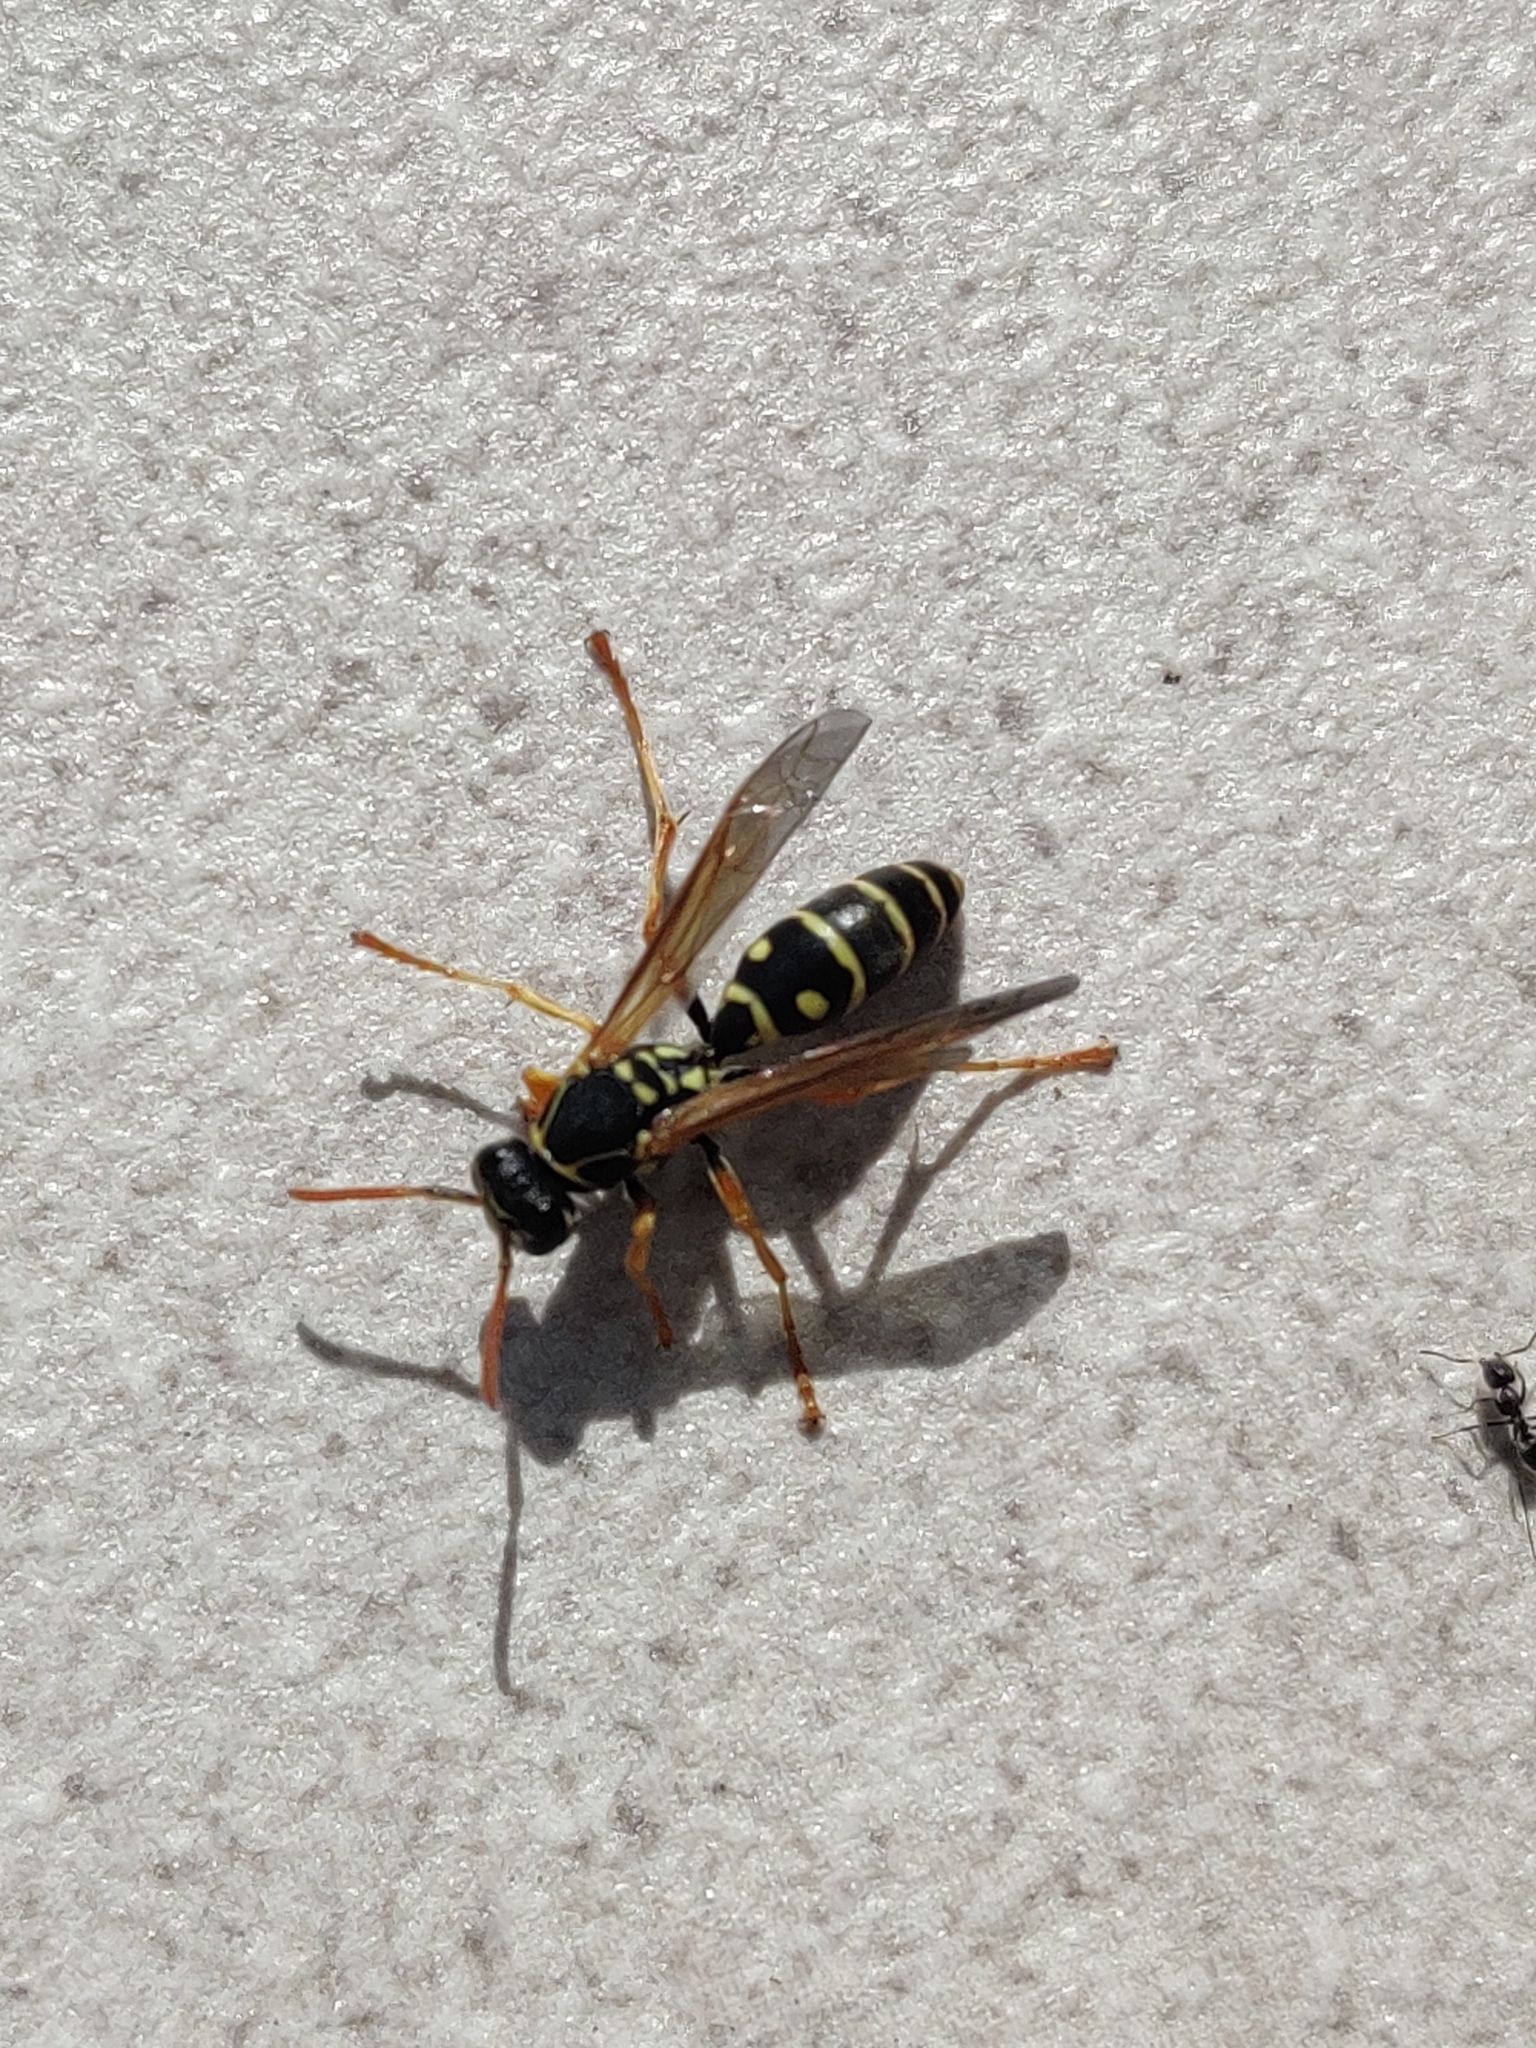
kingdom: Animalia
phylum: Arthropoda
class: Insecta
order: Hymenoptera
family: Eumenidae
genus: Polistes
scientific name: Polistes chinensis
